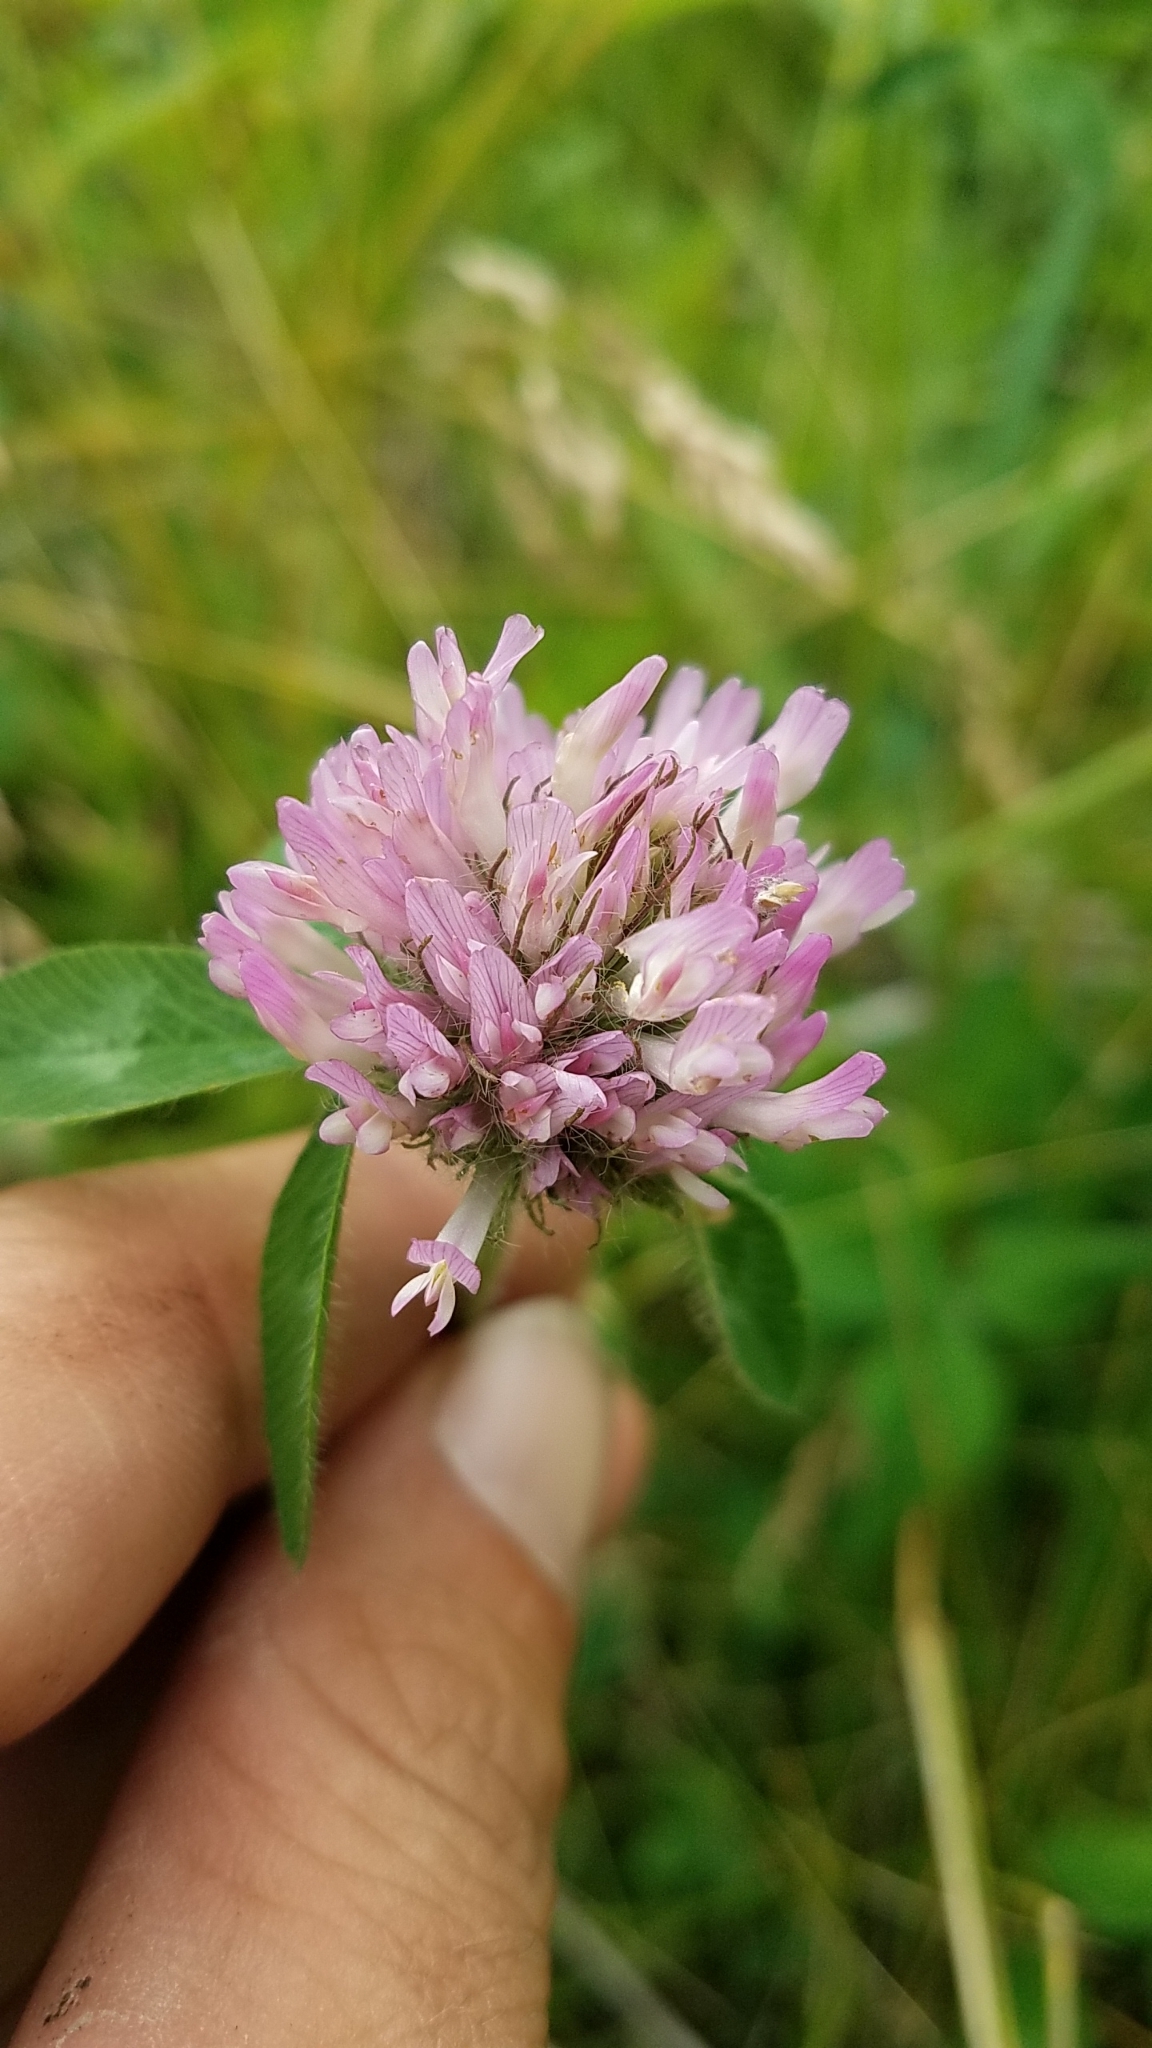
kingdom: Plantae
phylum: Tracheophyta
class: Magnoliopsida
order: Fabales
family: Fabaceae
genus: Trifolium
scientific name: Trifolium pratense
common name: Red clover
